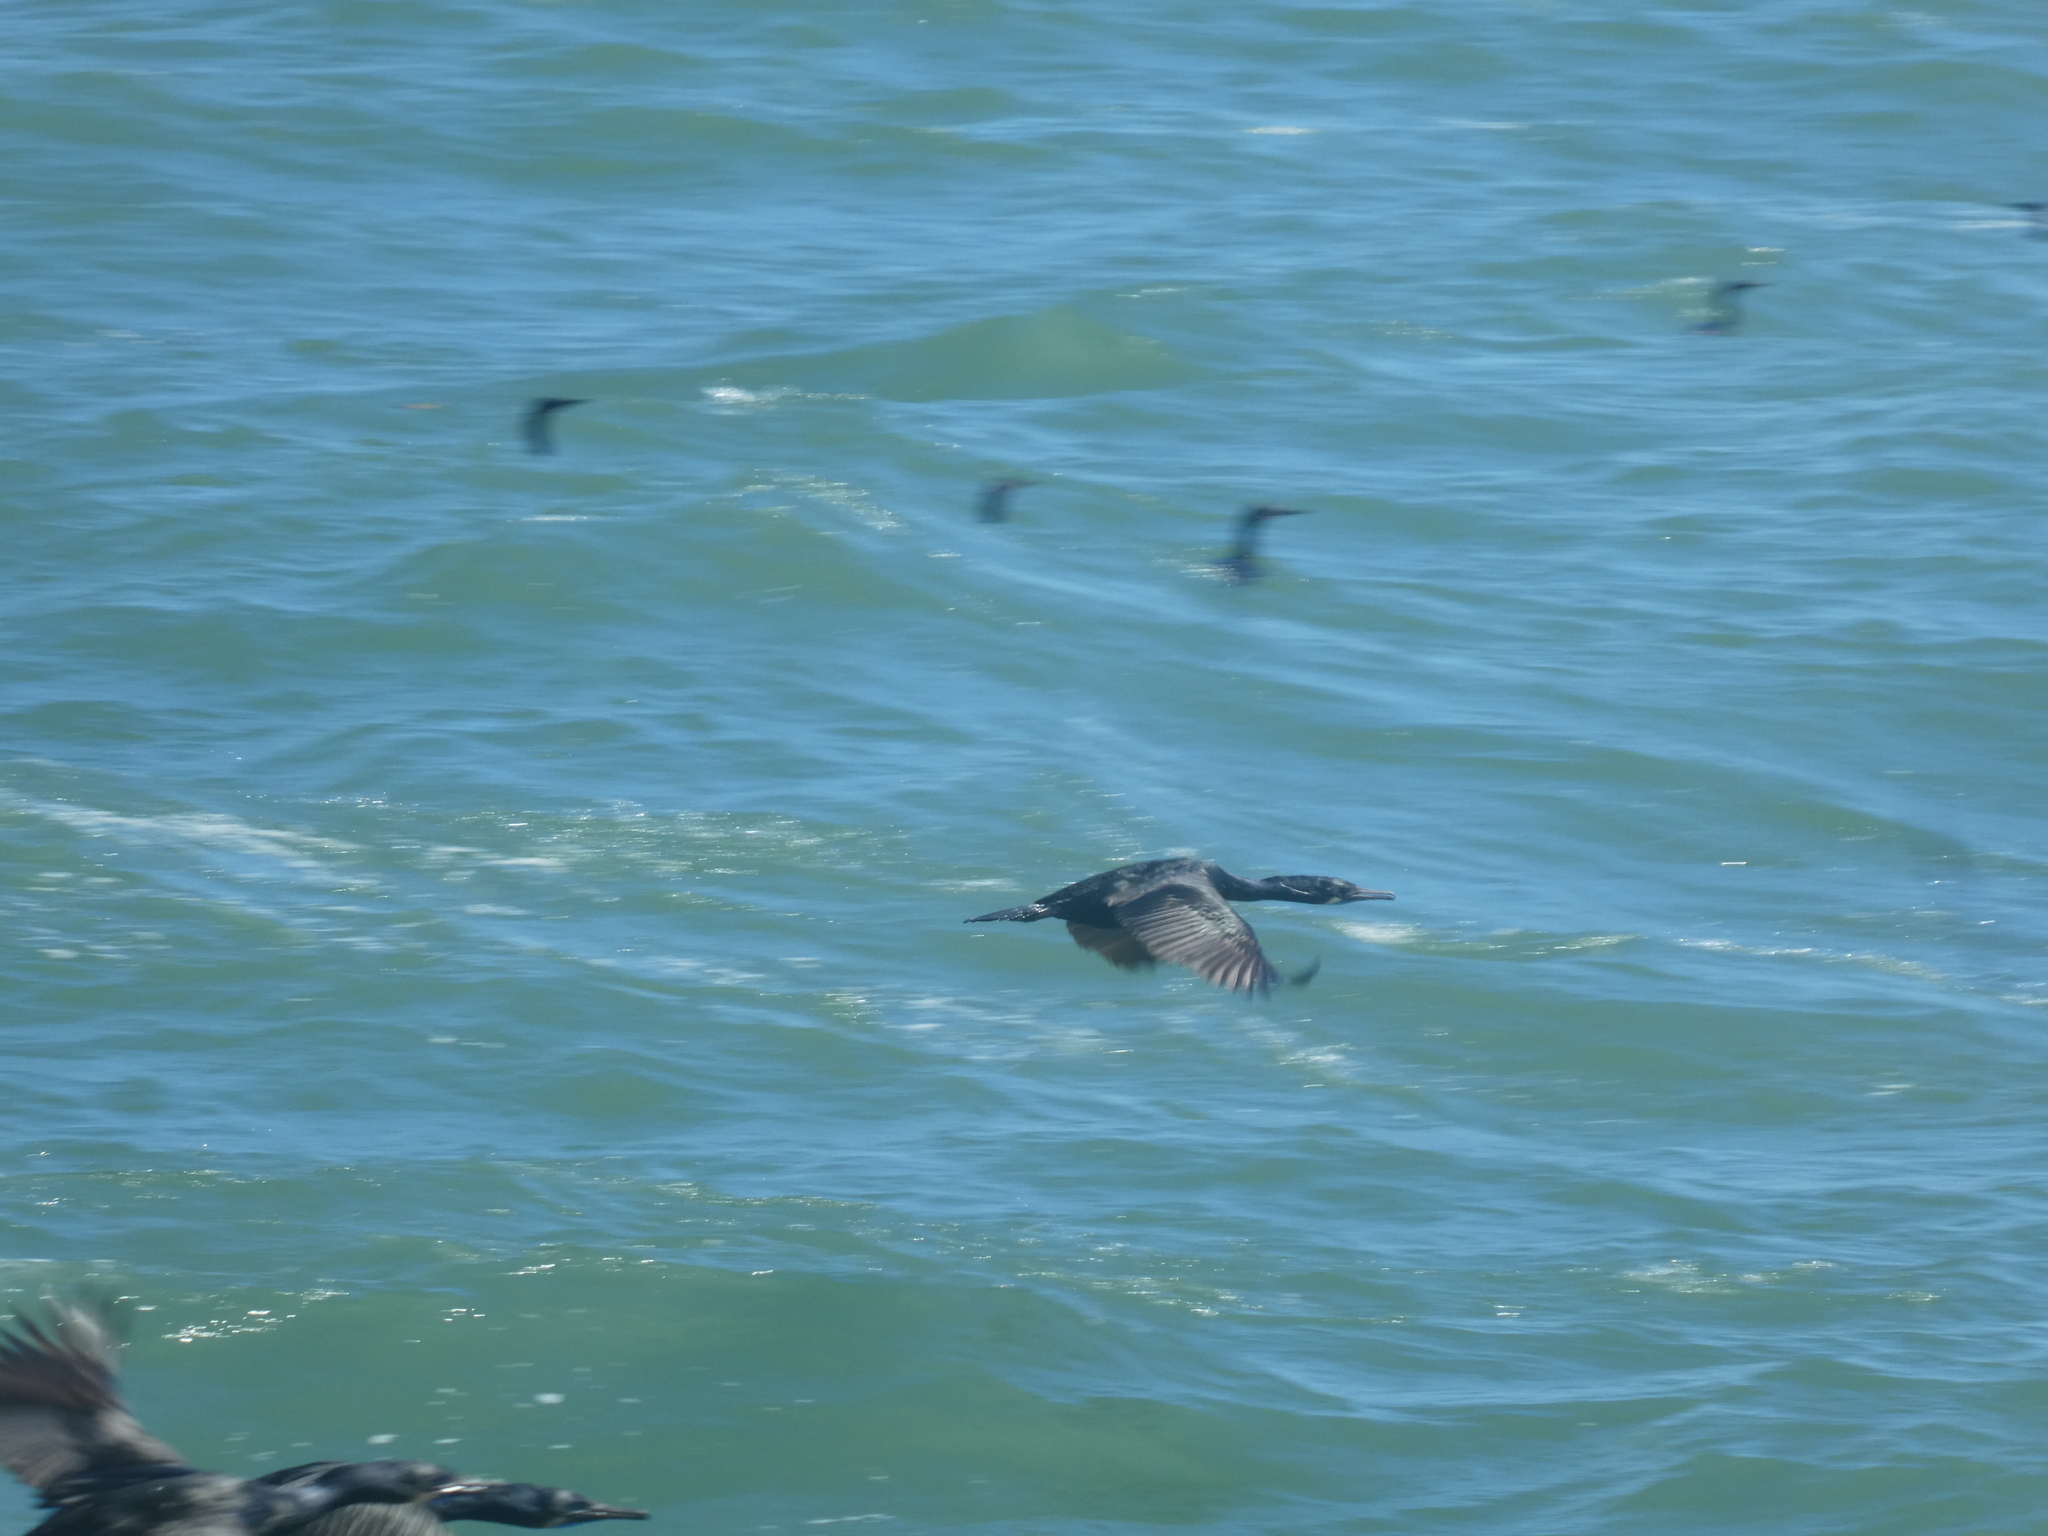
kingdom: Animalia
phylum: Chordata
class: Aves
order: Suliformes
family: Phalacrocoracidae
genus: Urile
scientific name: Urile penicillatus
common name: Brandt's cormorant
